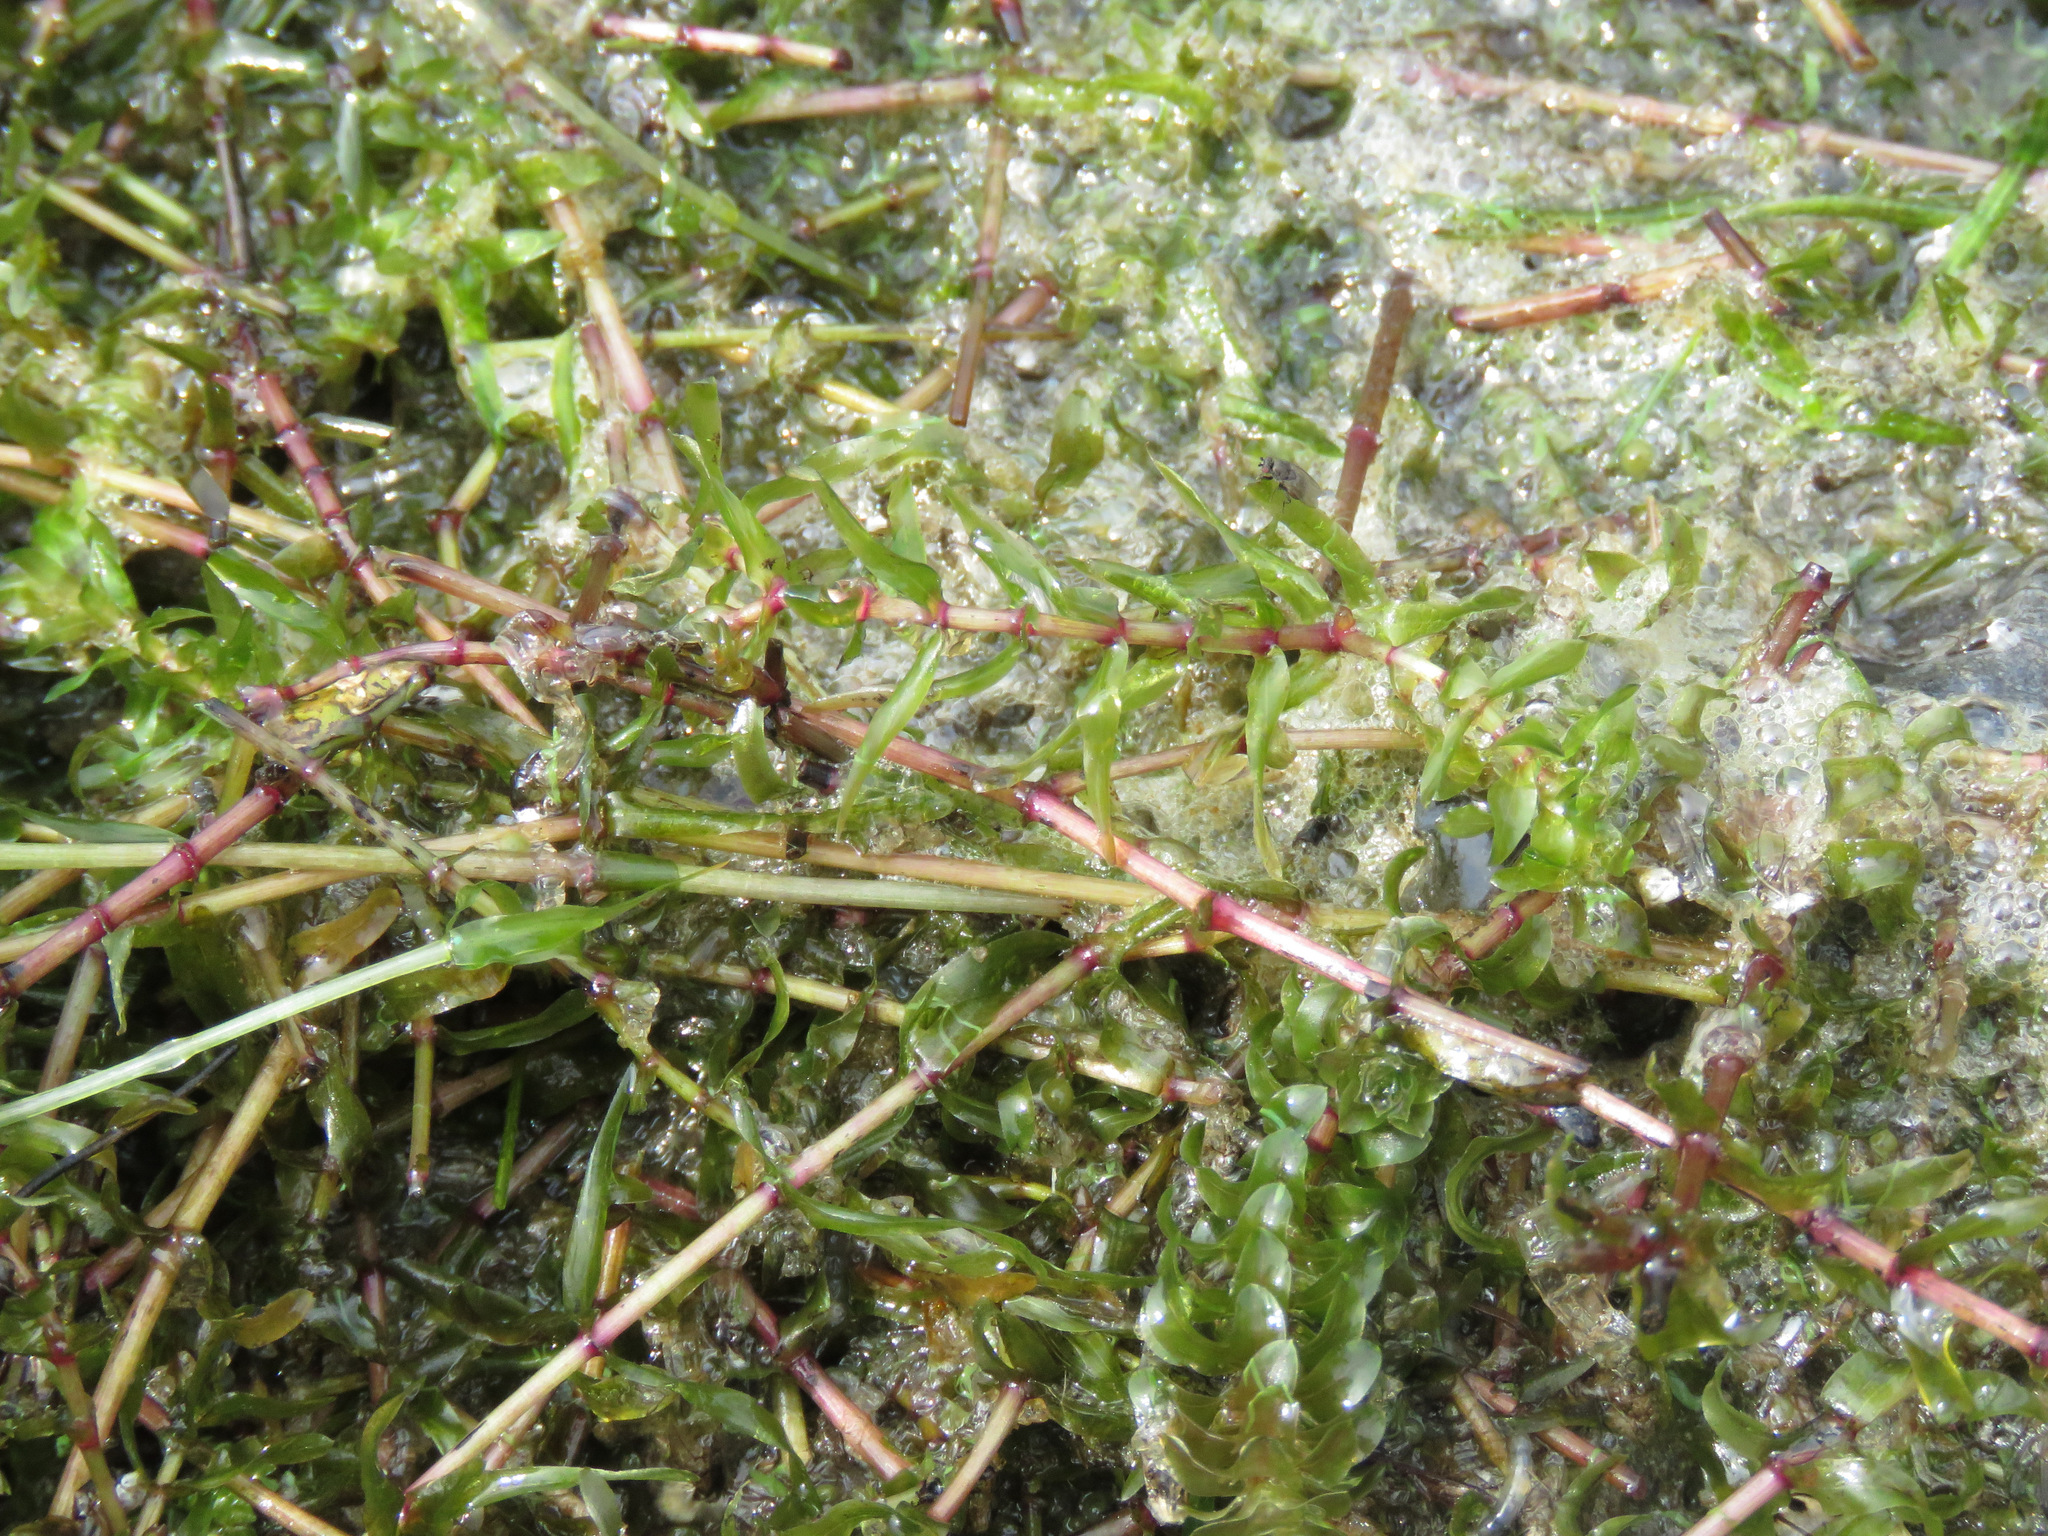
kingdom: Plantae
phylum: Tracheophyta
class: Liliopsida
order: Alismatales
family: Hydrocharitaceae
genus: Elodea
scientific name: Elodea canadensis
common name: Canadian waterweed
